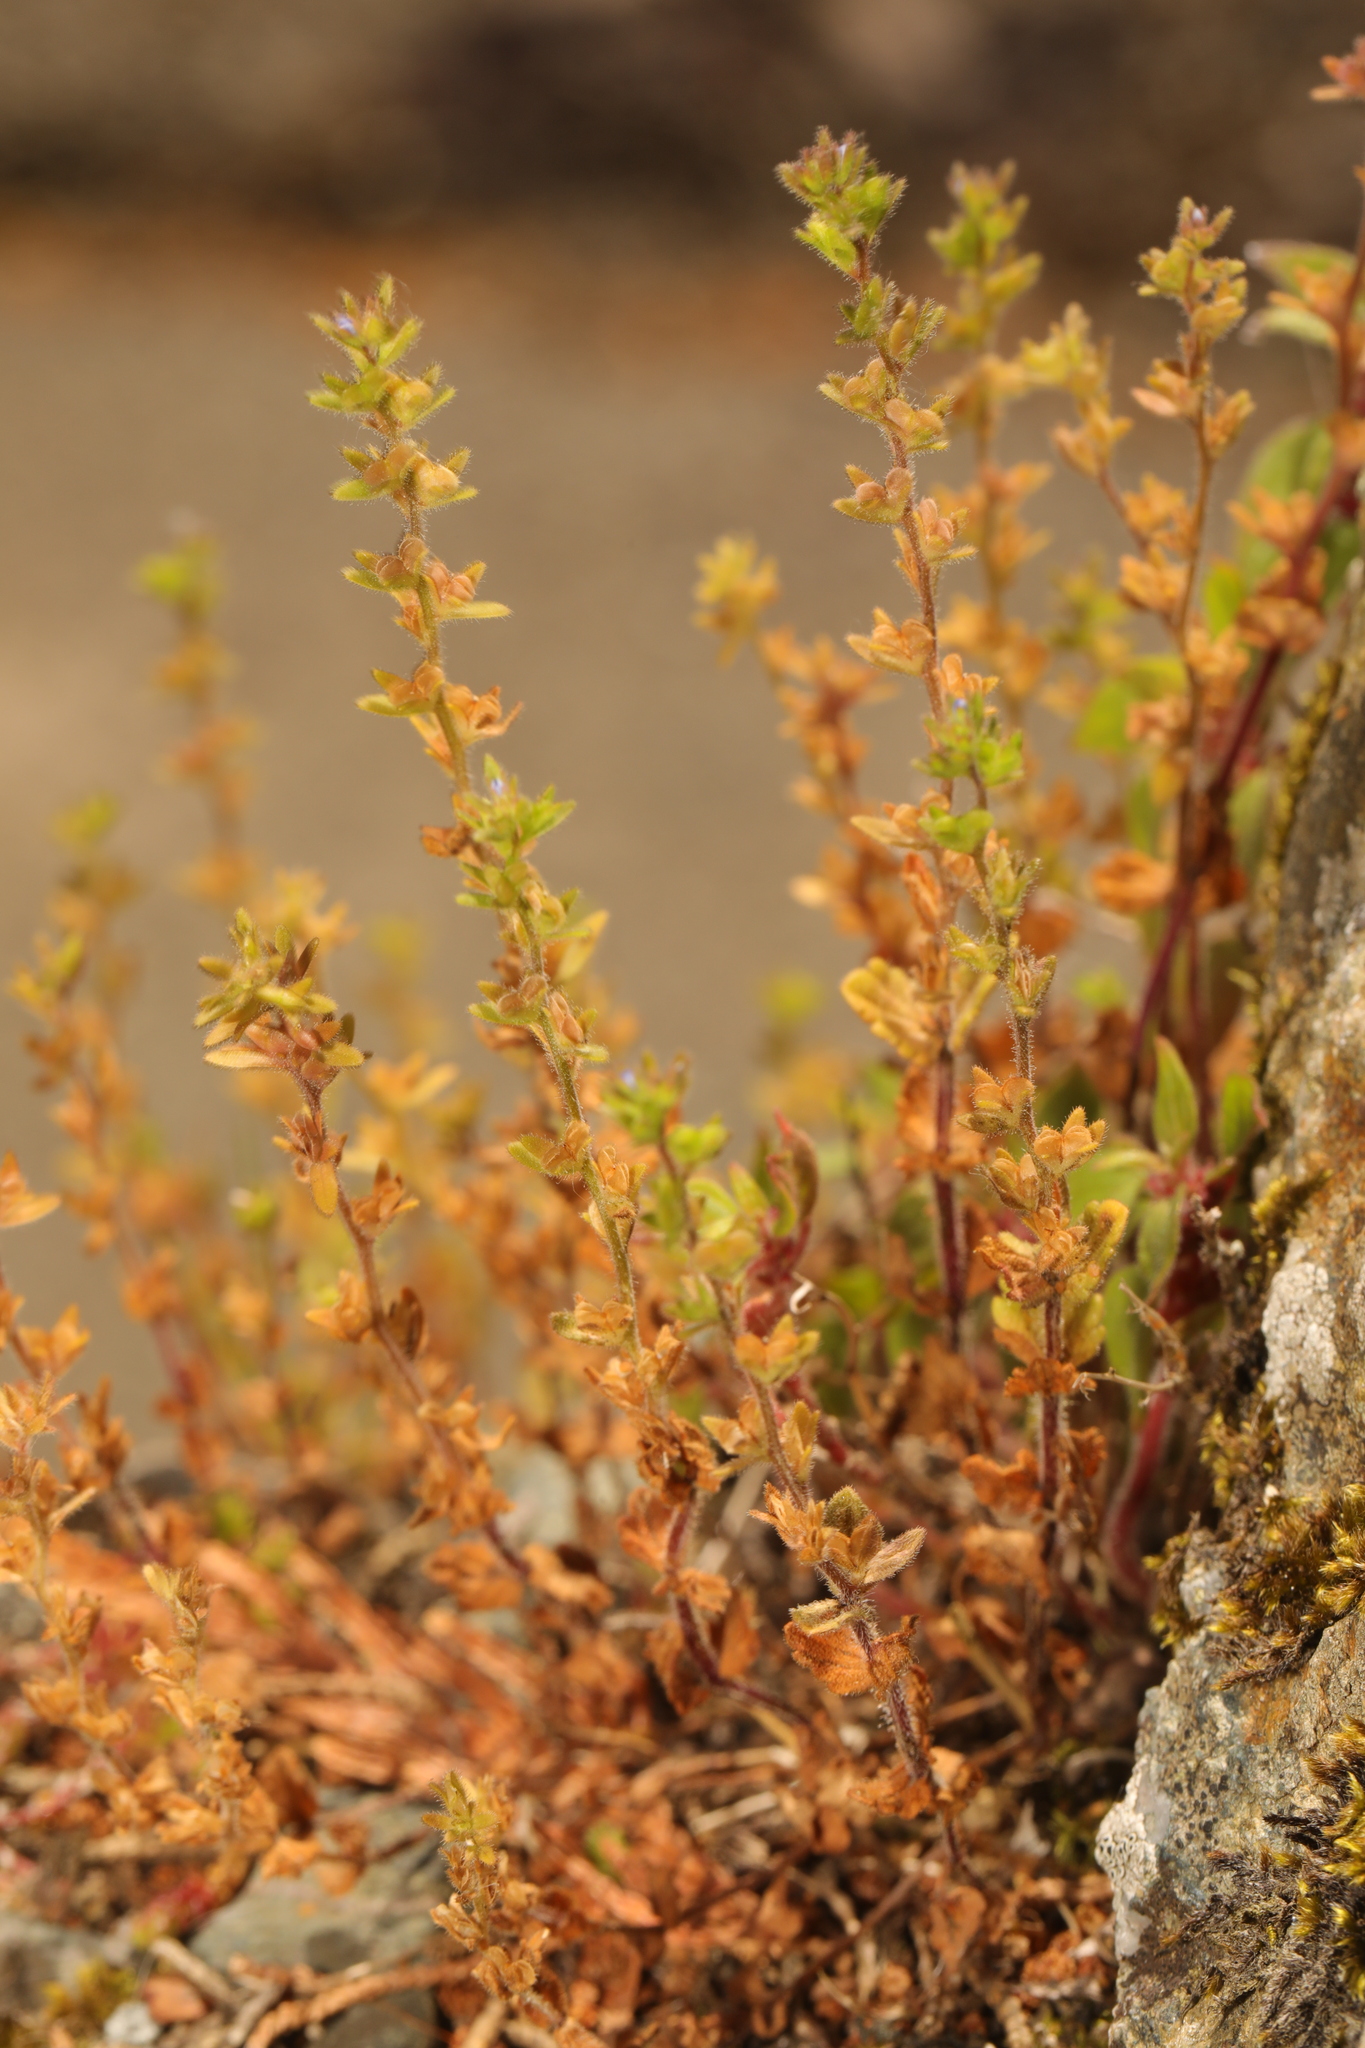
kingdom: Plantae
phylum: Tracheophyta
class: Magnoliopsida
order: Lamiales
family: Plantaginaceae
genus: Veronica
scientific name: Veronica arvensis
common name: Corn speedwell
